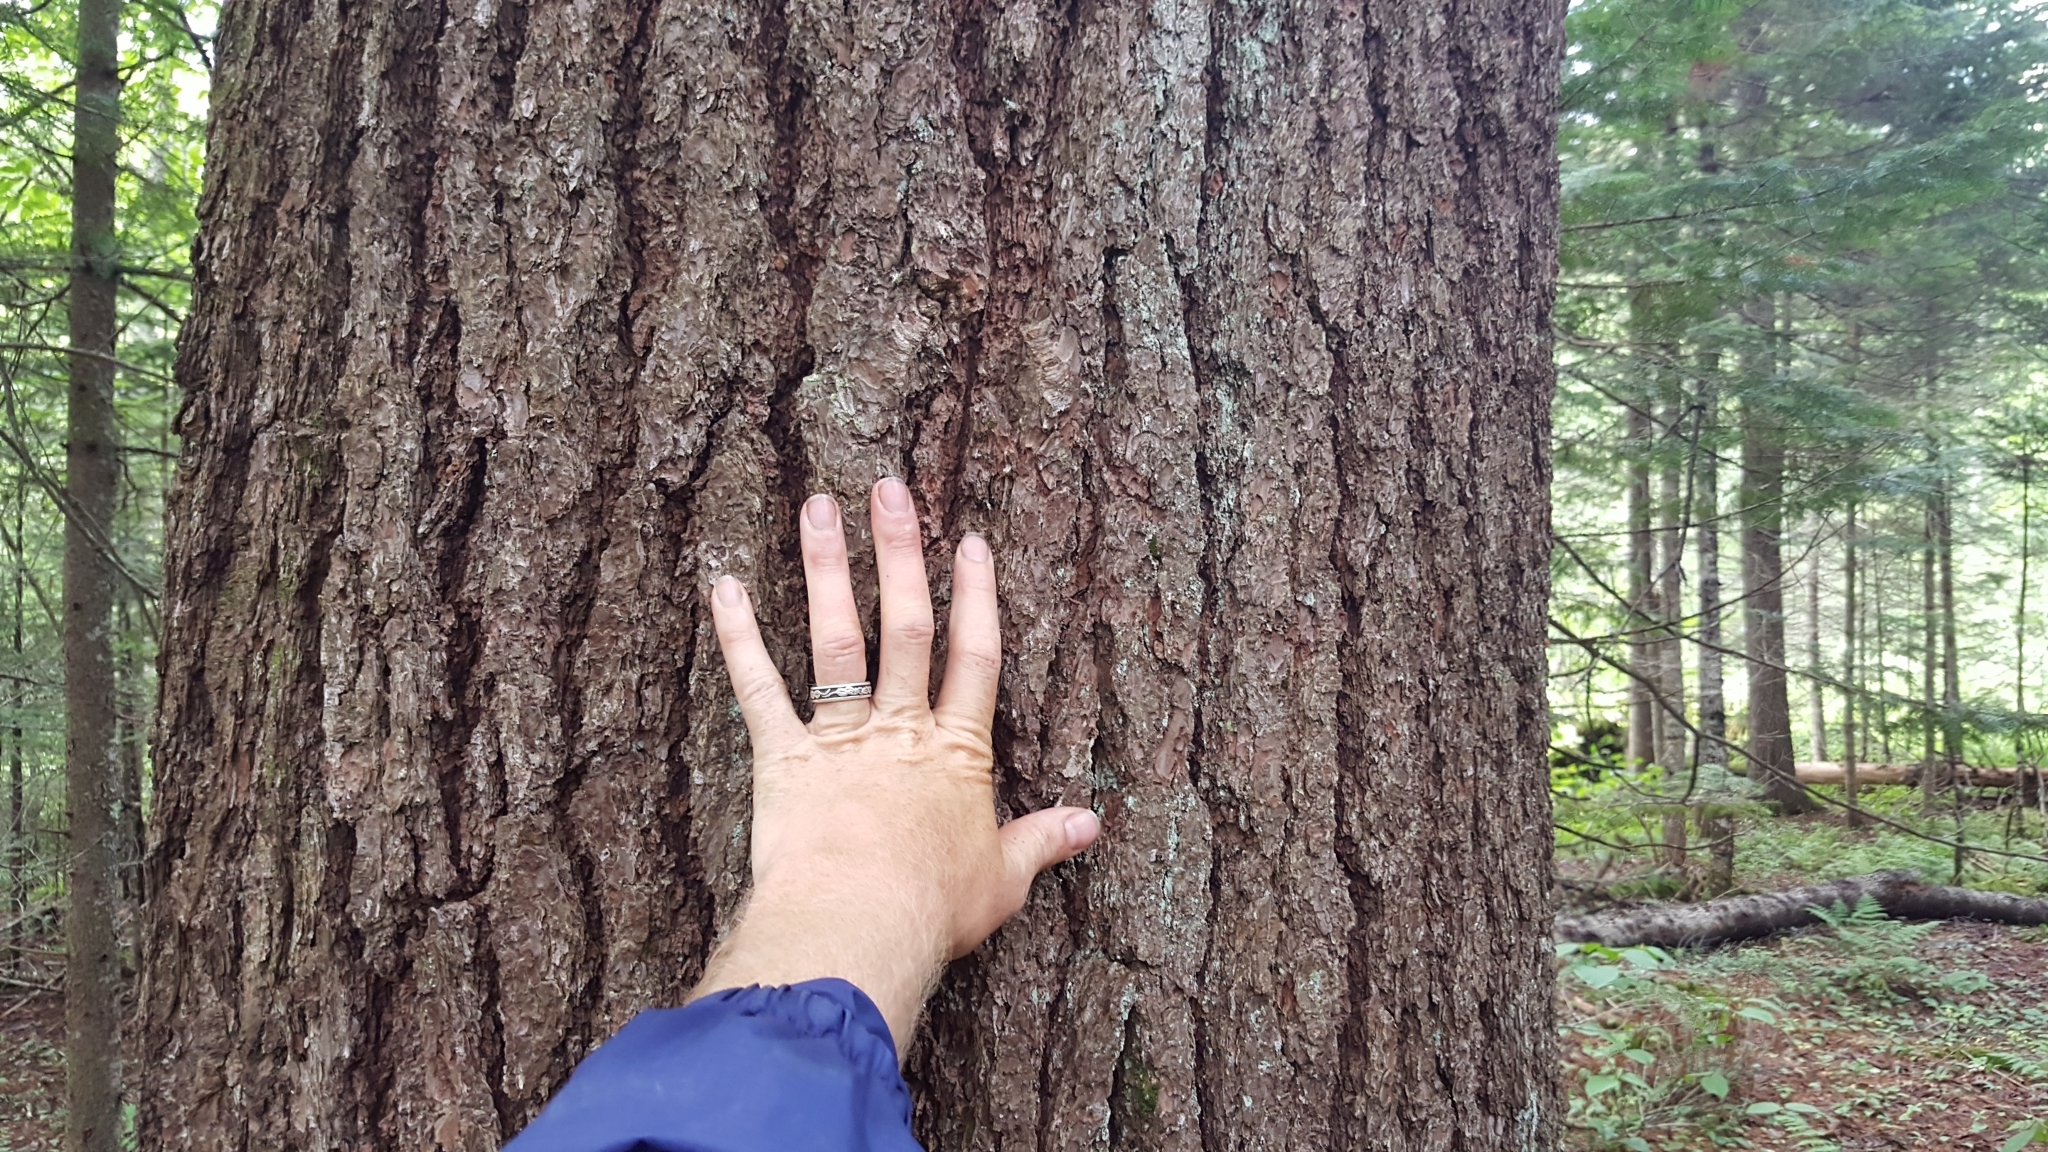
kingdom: Plantae
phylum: Tracheophyta
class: Pinopsida
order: Pinales
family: Pinaceae
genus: Pinus
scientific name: Pinus strobus
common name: Weymouth pine
